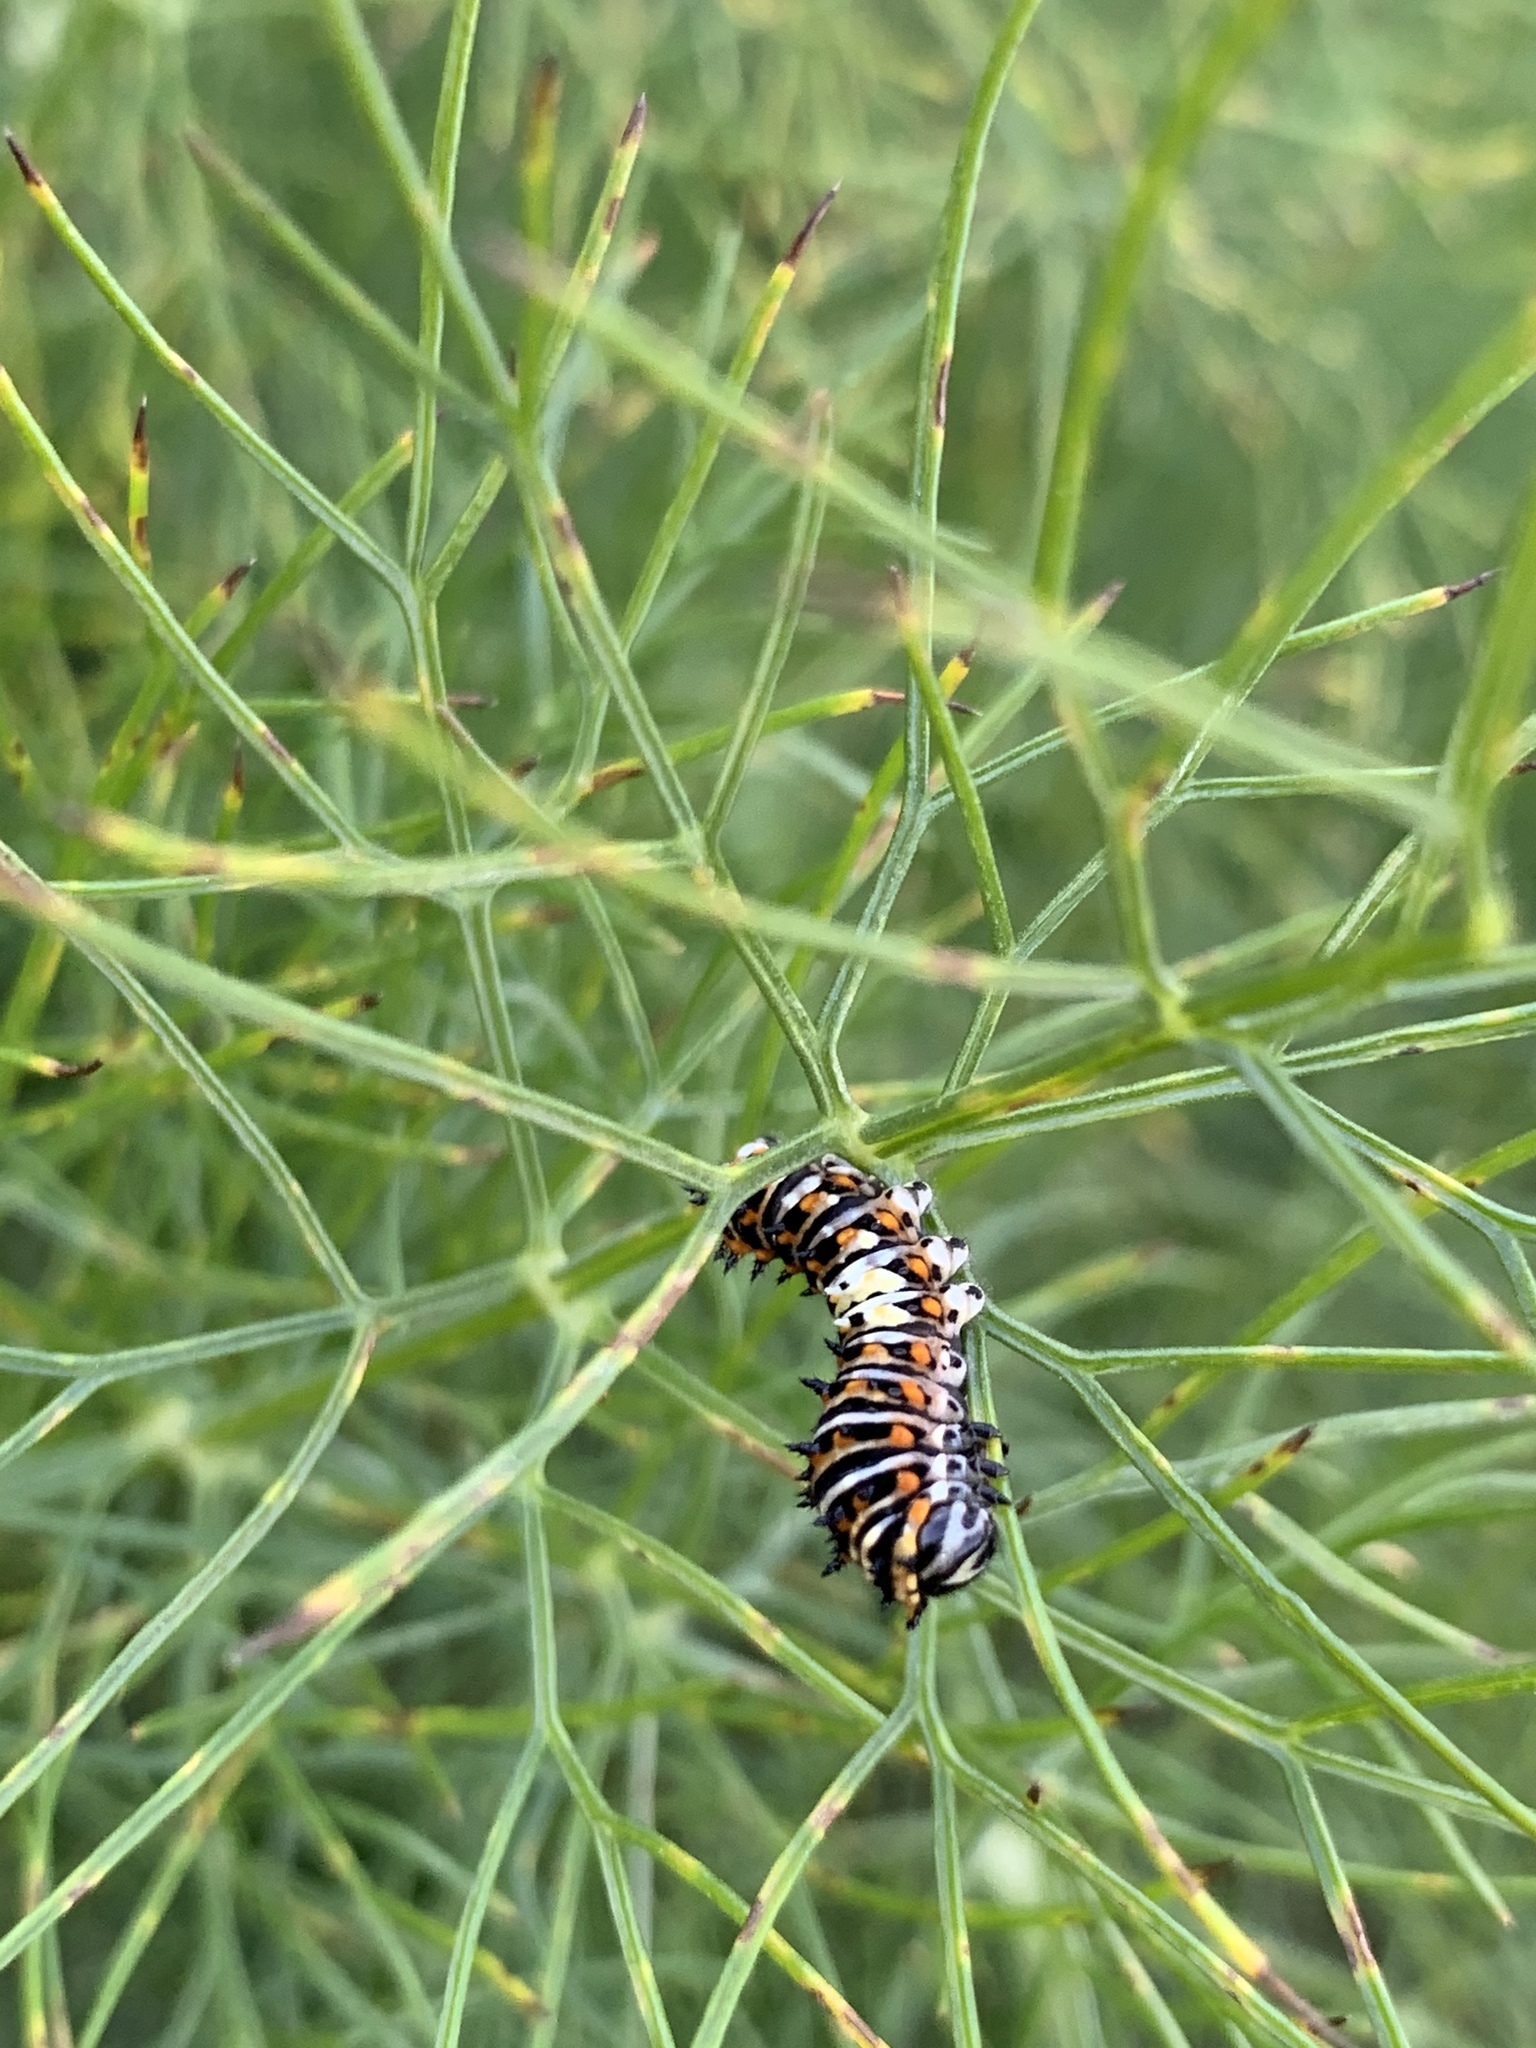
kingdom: Animalia
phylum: Arthropoda
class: Insecta
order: Lepidoptera
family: Papilionidae
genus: Papilio
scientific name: Papilio polyxenes
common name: Black swallowtail
